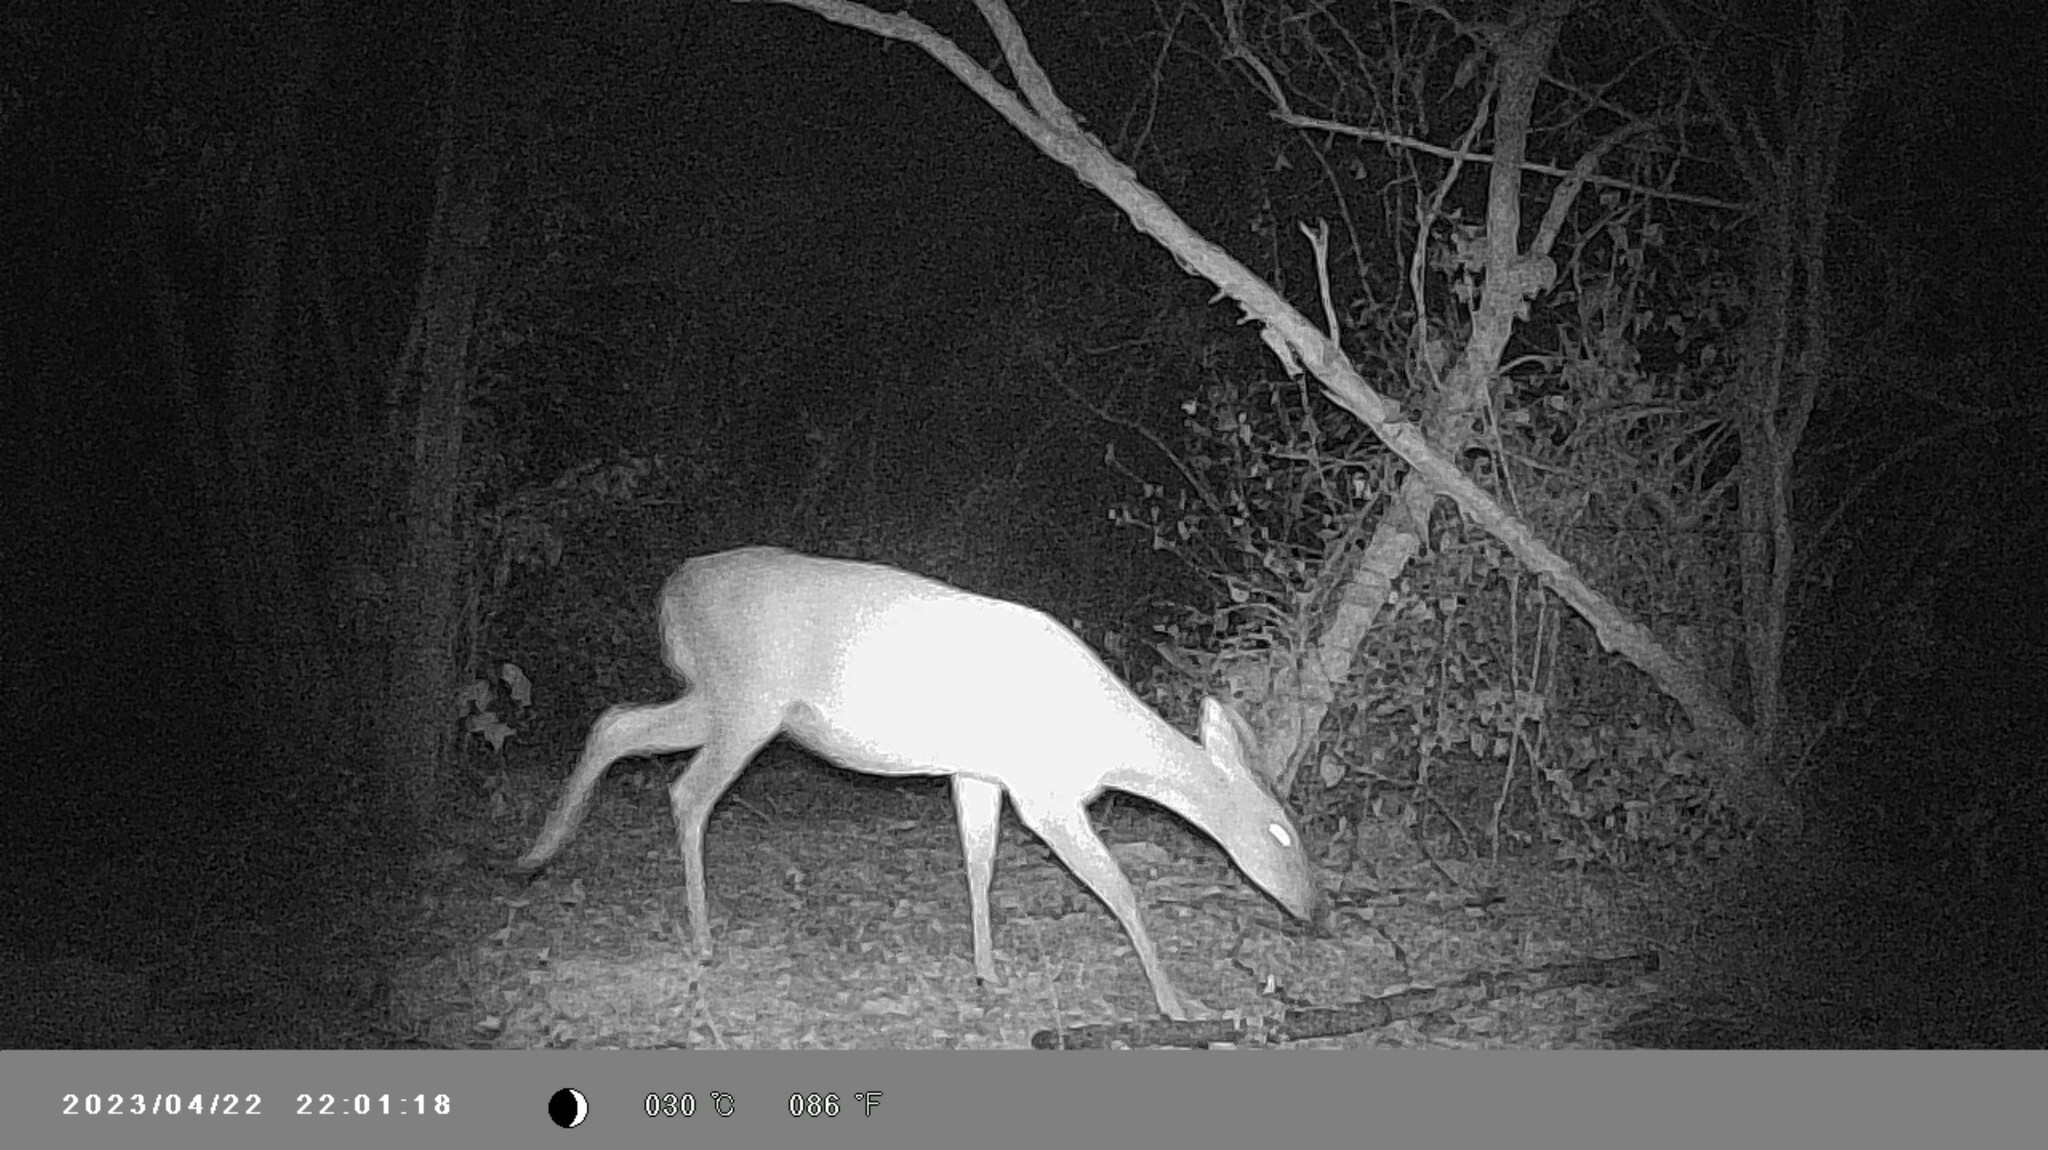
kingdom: Animalia
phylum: Chordata
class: Mammalia
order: Artiodactyla
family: Cervidae
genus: Odocoileus
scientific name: Odocoileus virginianus
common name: White-tailed deer
